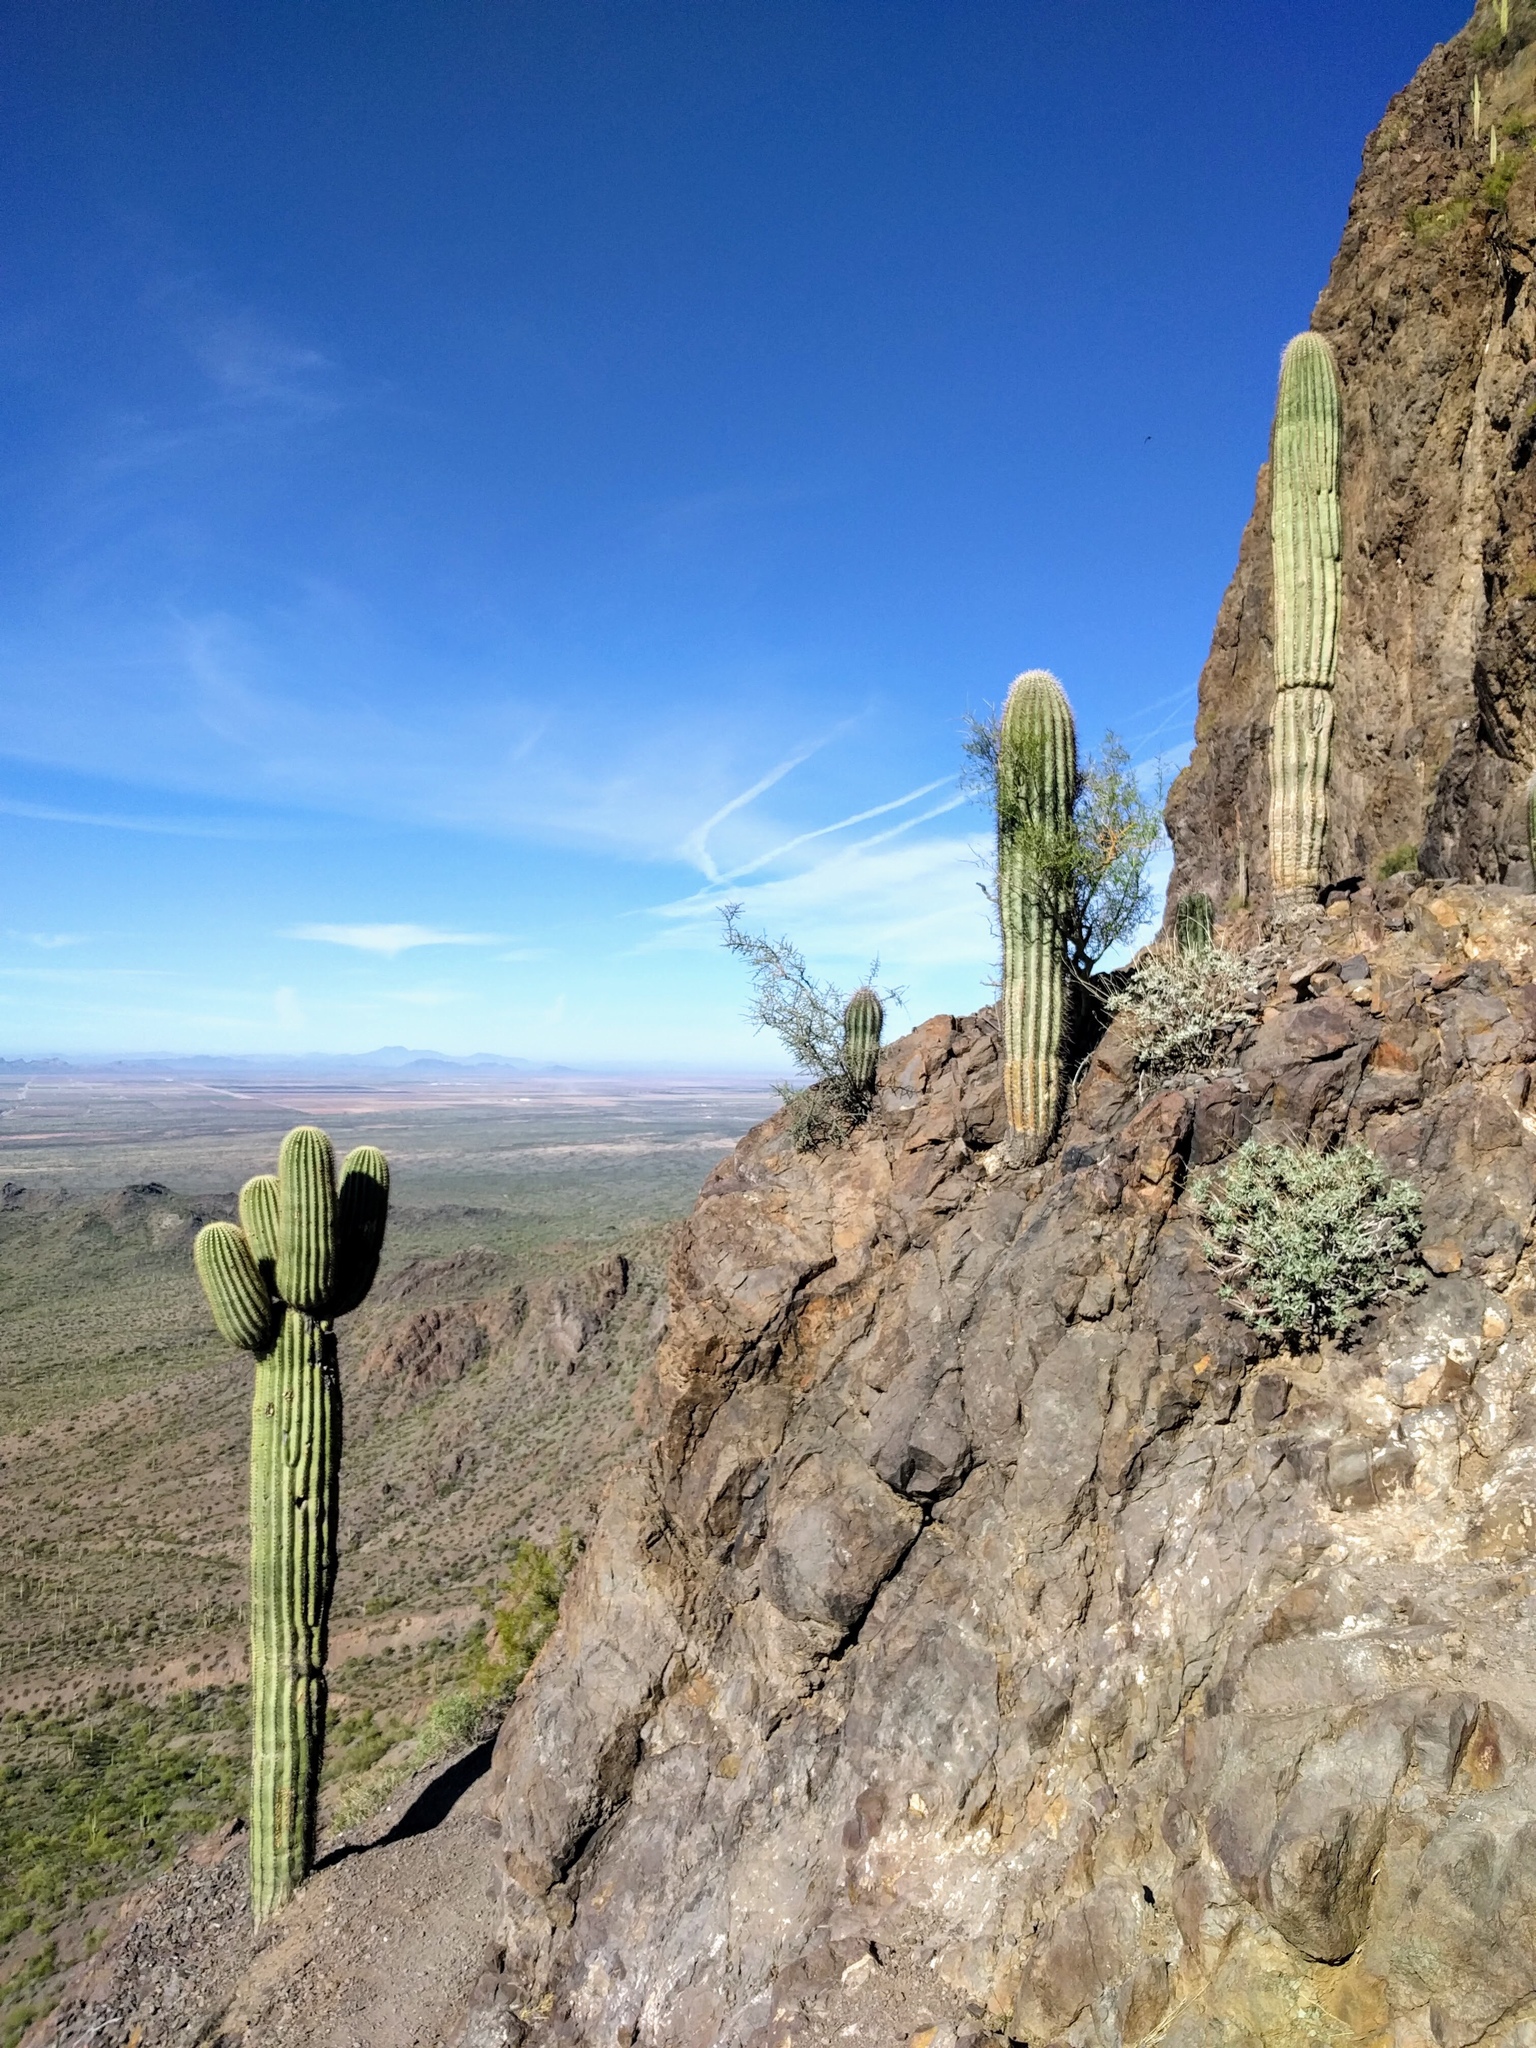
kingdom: Plantae
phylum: Tracheophyta
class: Magnoliopsida
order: Caryophyllales
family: Cactaceae
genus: Carnegiea
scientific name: Carnegiea gigantea
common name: Saguaro
